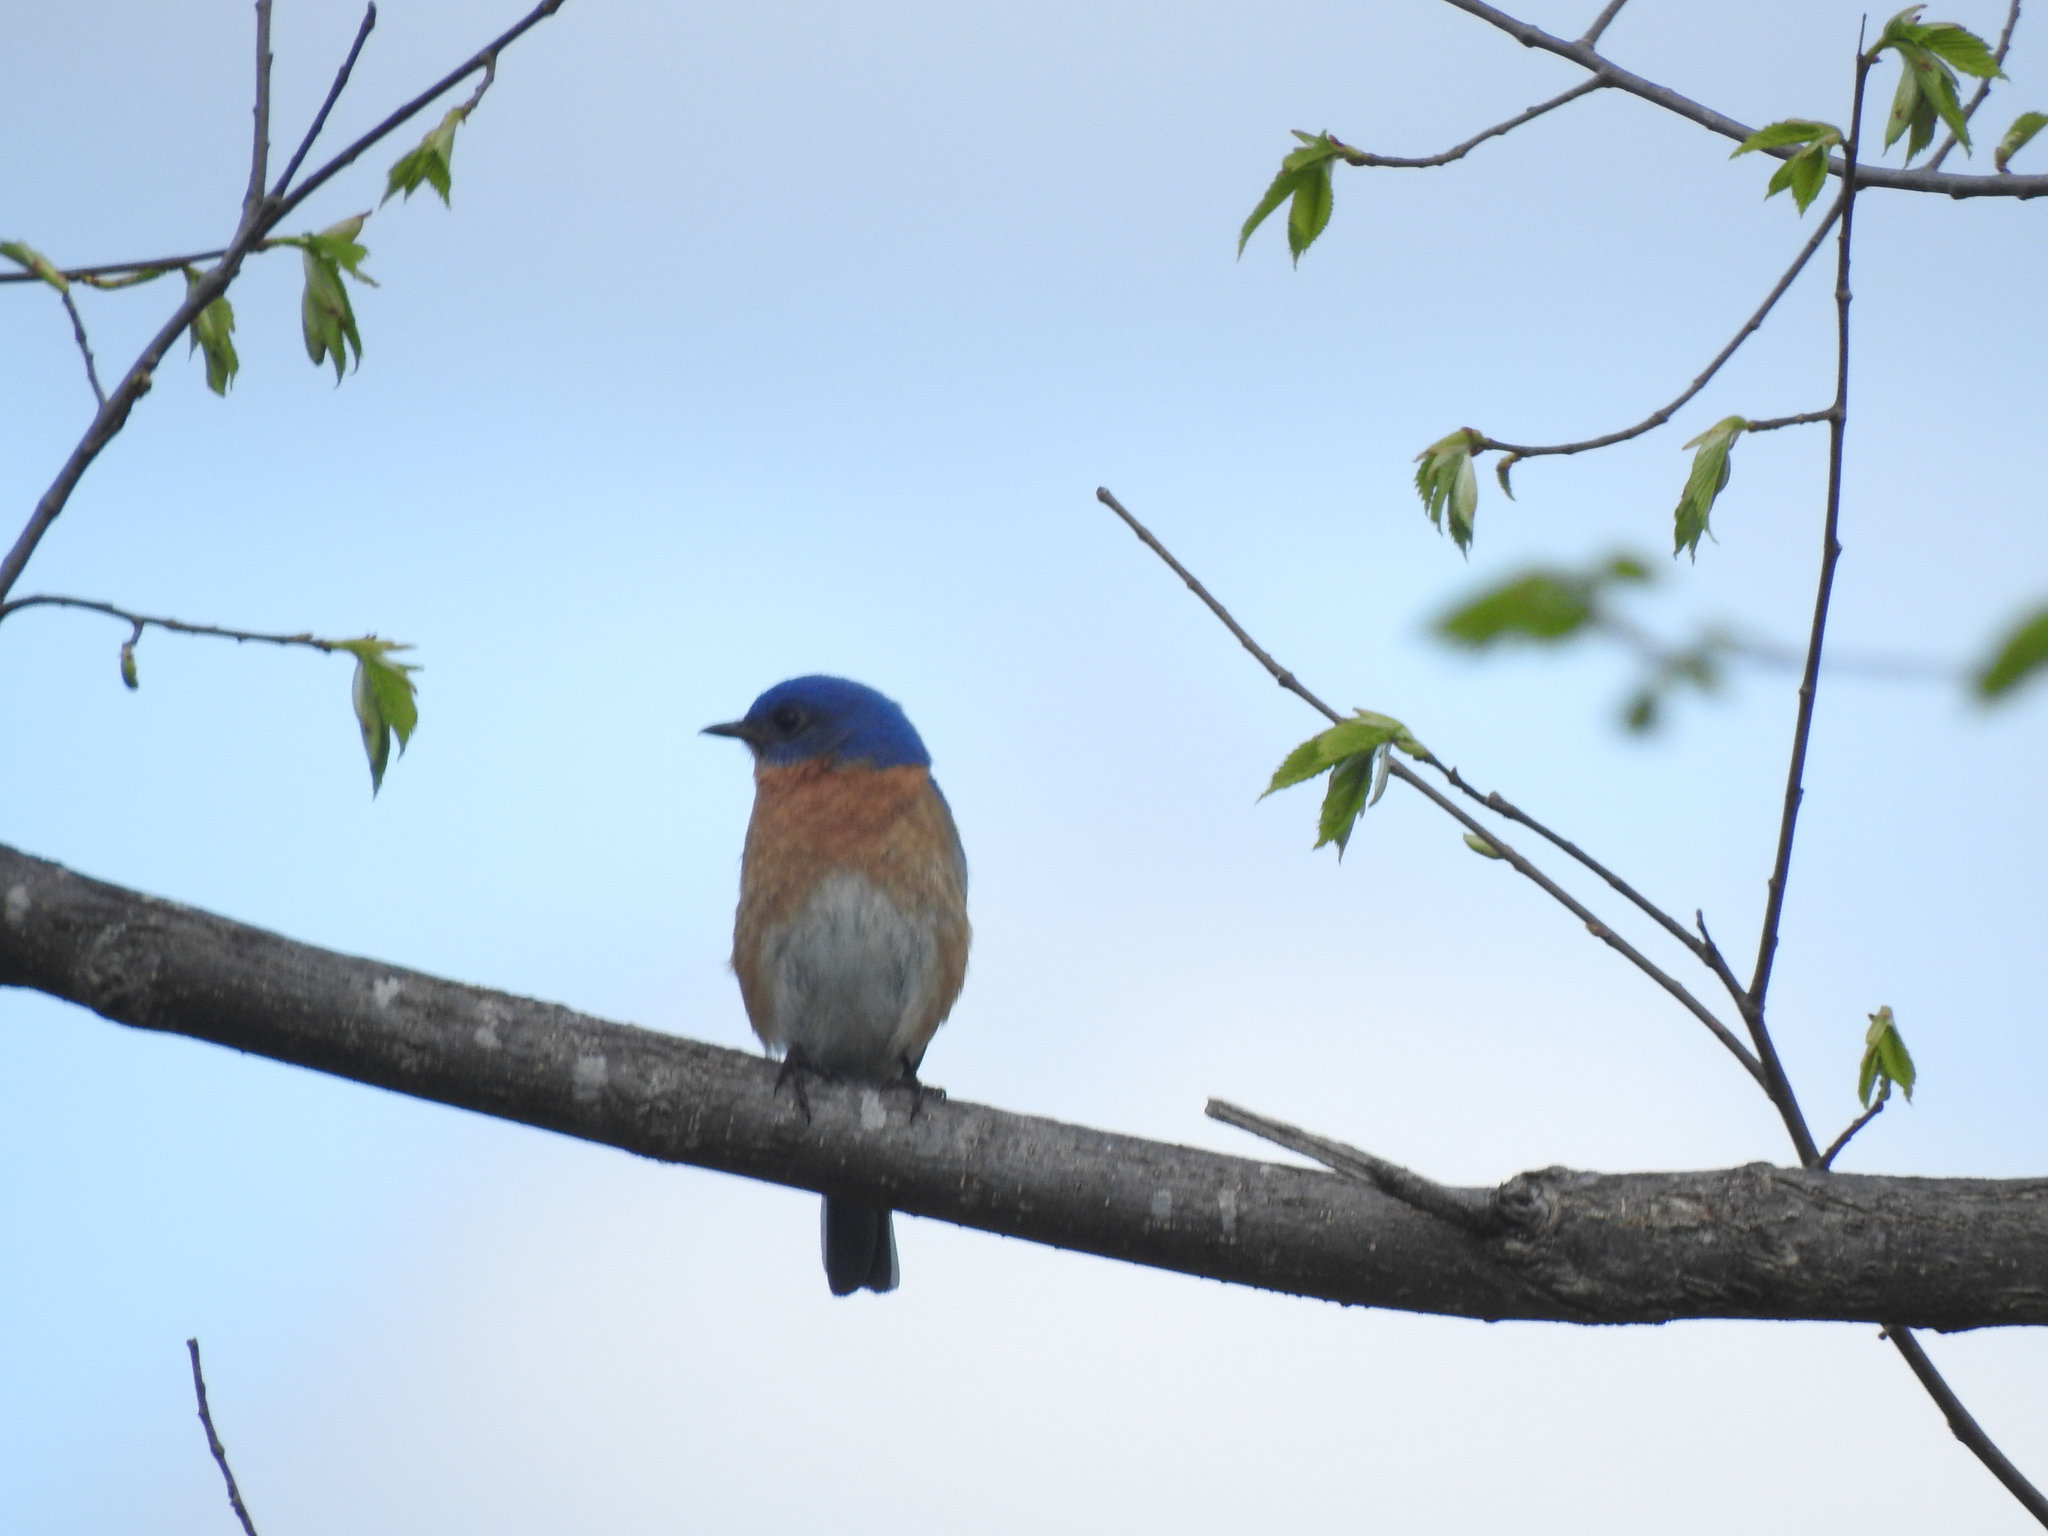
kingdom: Animalia
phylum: Chordata
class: Aves
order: Passeriformes
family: Turdidae
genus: Sialia
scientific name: Sialia sialis
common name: Eastern bluebird
